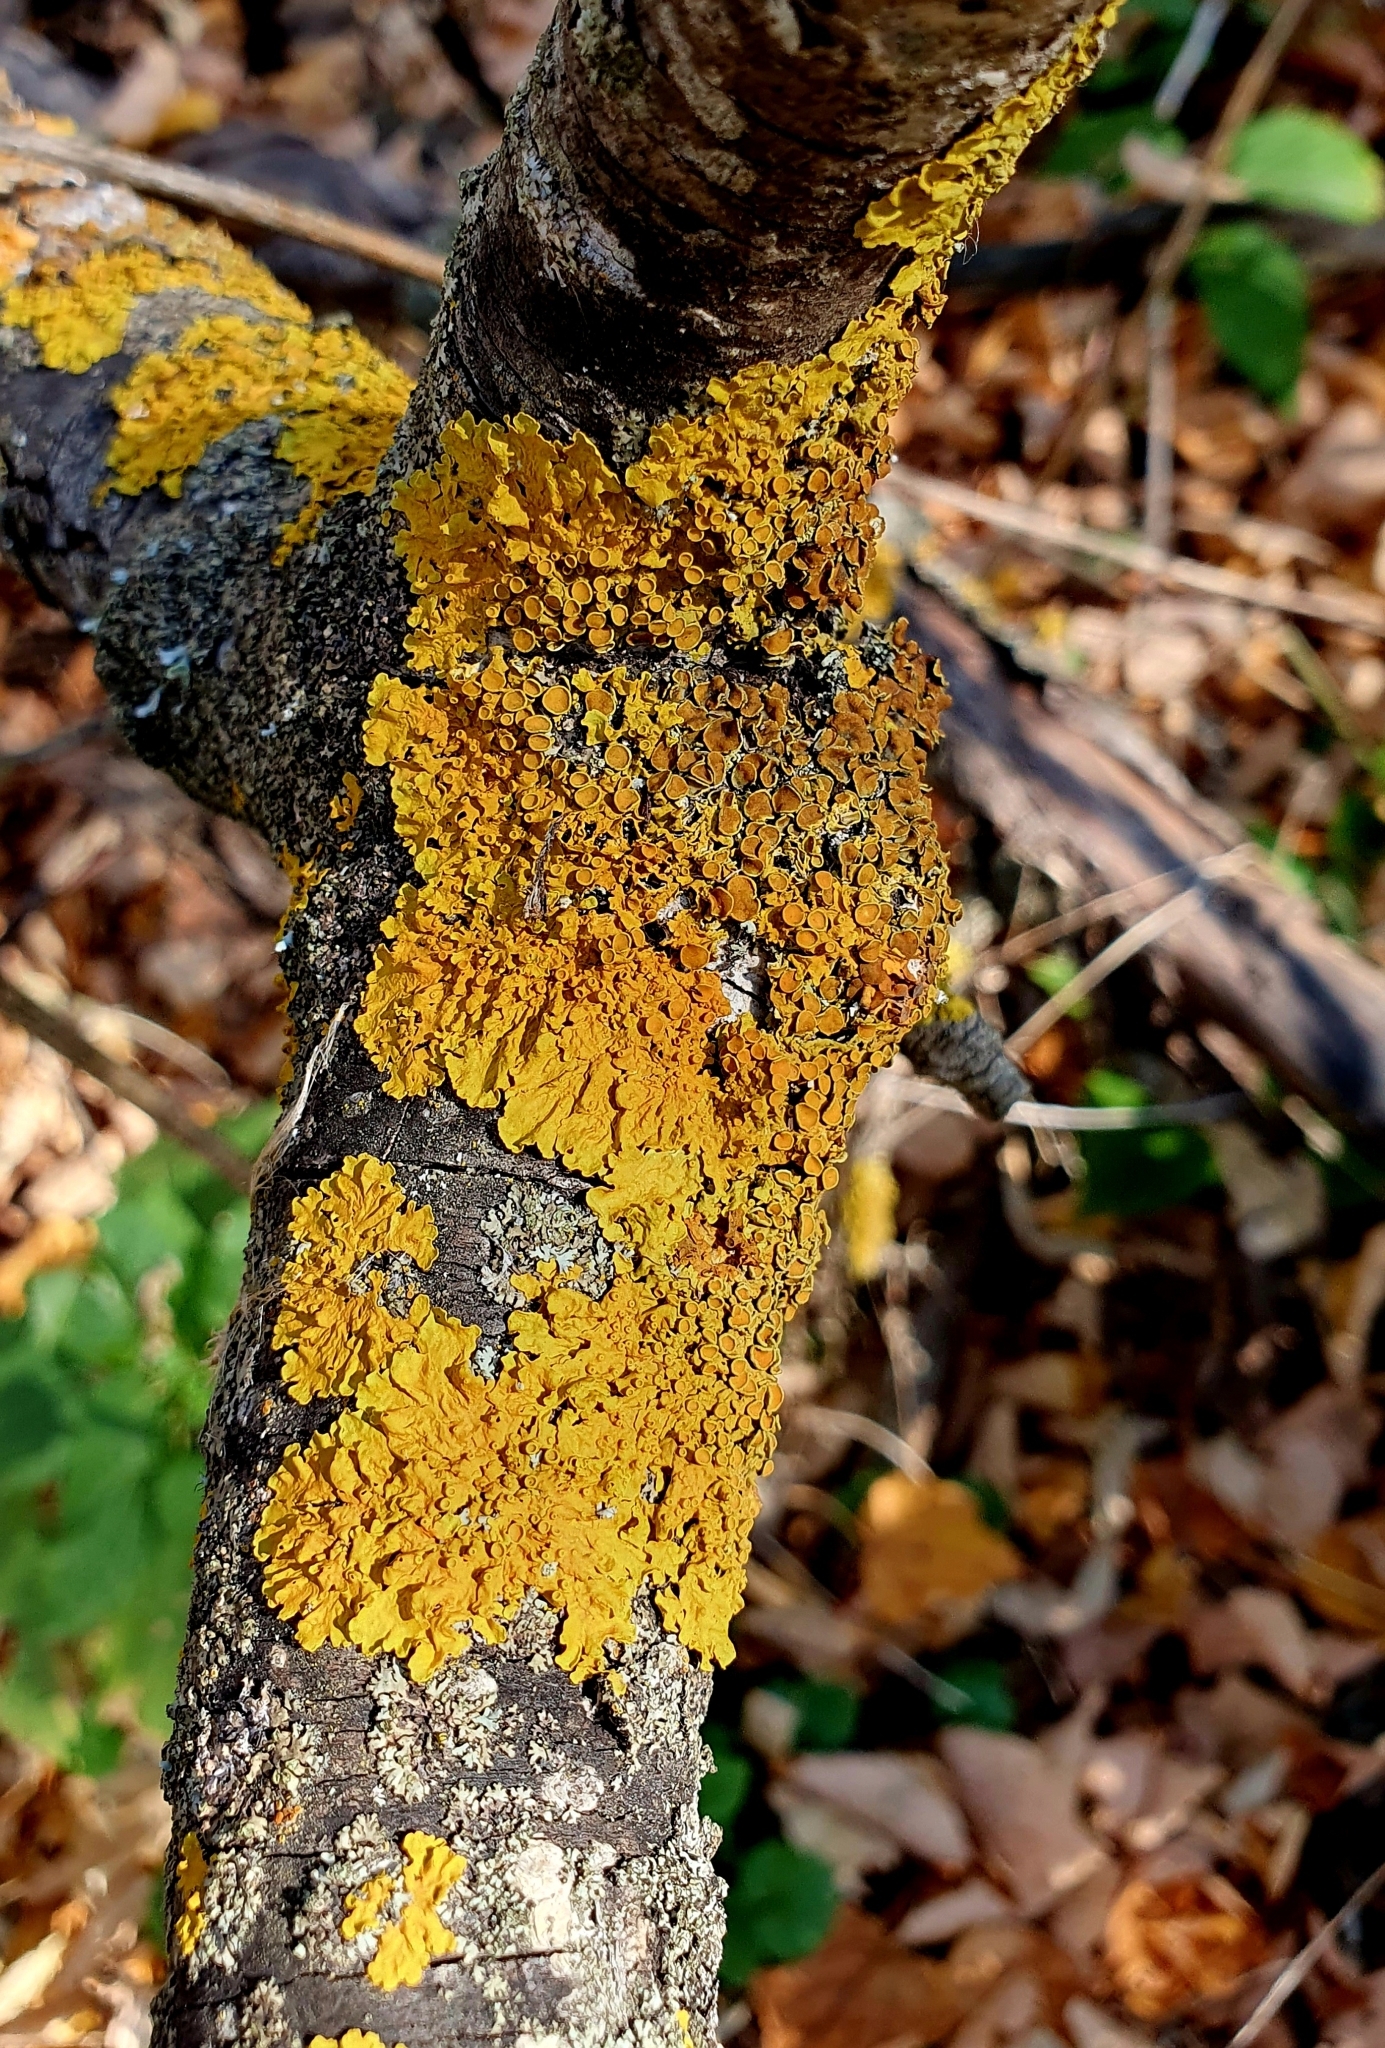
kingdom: Fungi
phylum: Ascomycota
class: Lecanoromycetes
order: Teloschistales
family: Teloschistaceae
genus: Xanthoria
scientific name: Xanthoria parietina
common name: Common orange lichen
